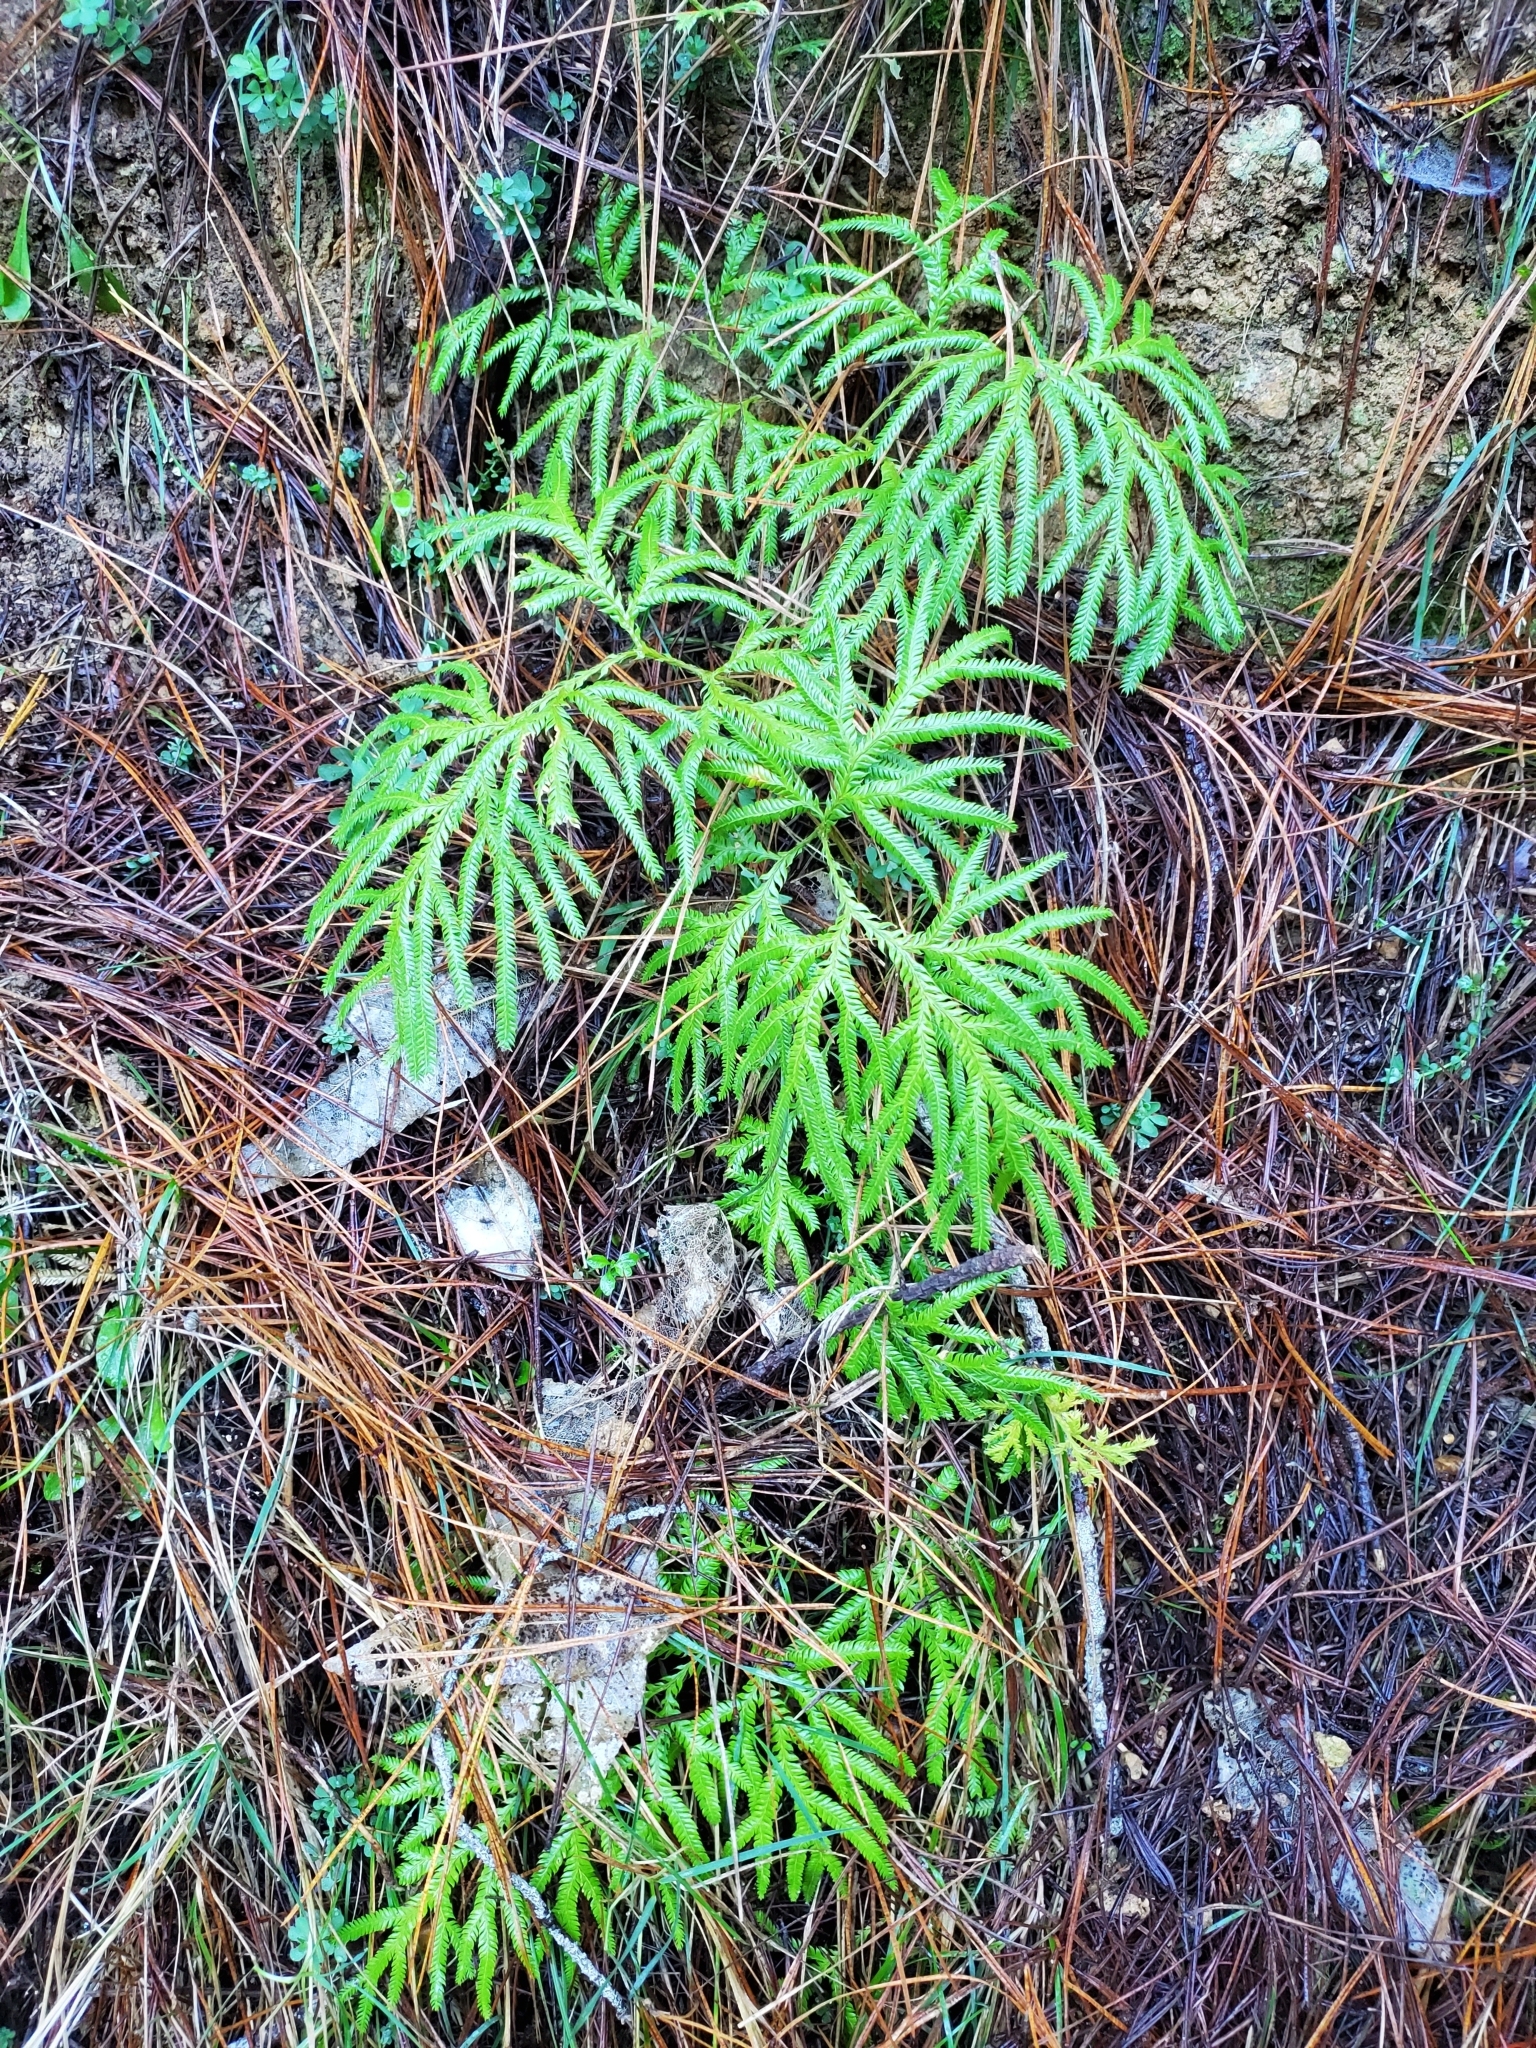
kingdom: Plantae
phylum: Tracheophyta
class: Lycopodiopsida
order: Lycopodiales
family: Lycopodiaceae
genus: Lycopodium
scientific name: Lycopodium volubile
